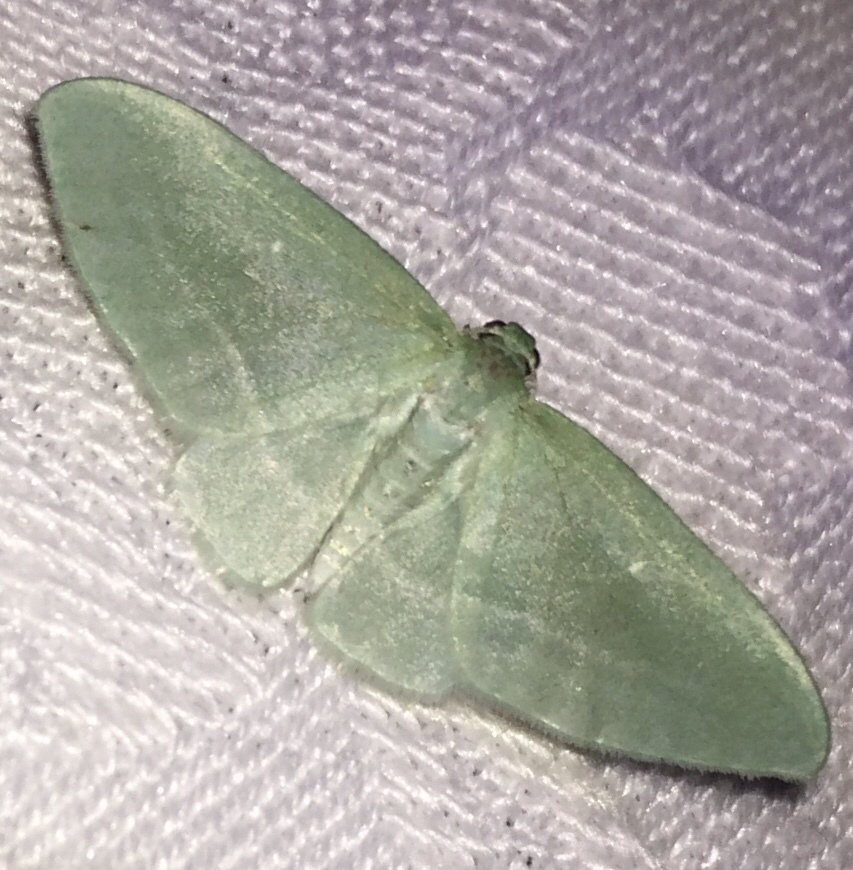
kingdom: Animalia
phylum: Arthropoda
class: Insecta
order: Lepidoptera
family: Geometridae
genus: Dyspteris
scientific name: Dyspteris abortivaria
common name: Bad-wing
